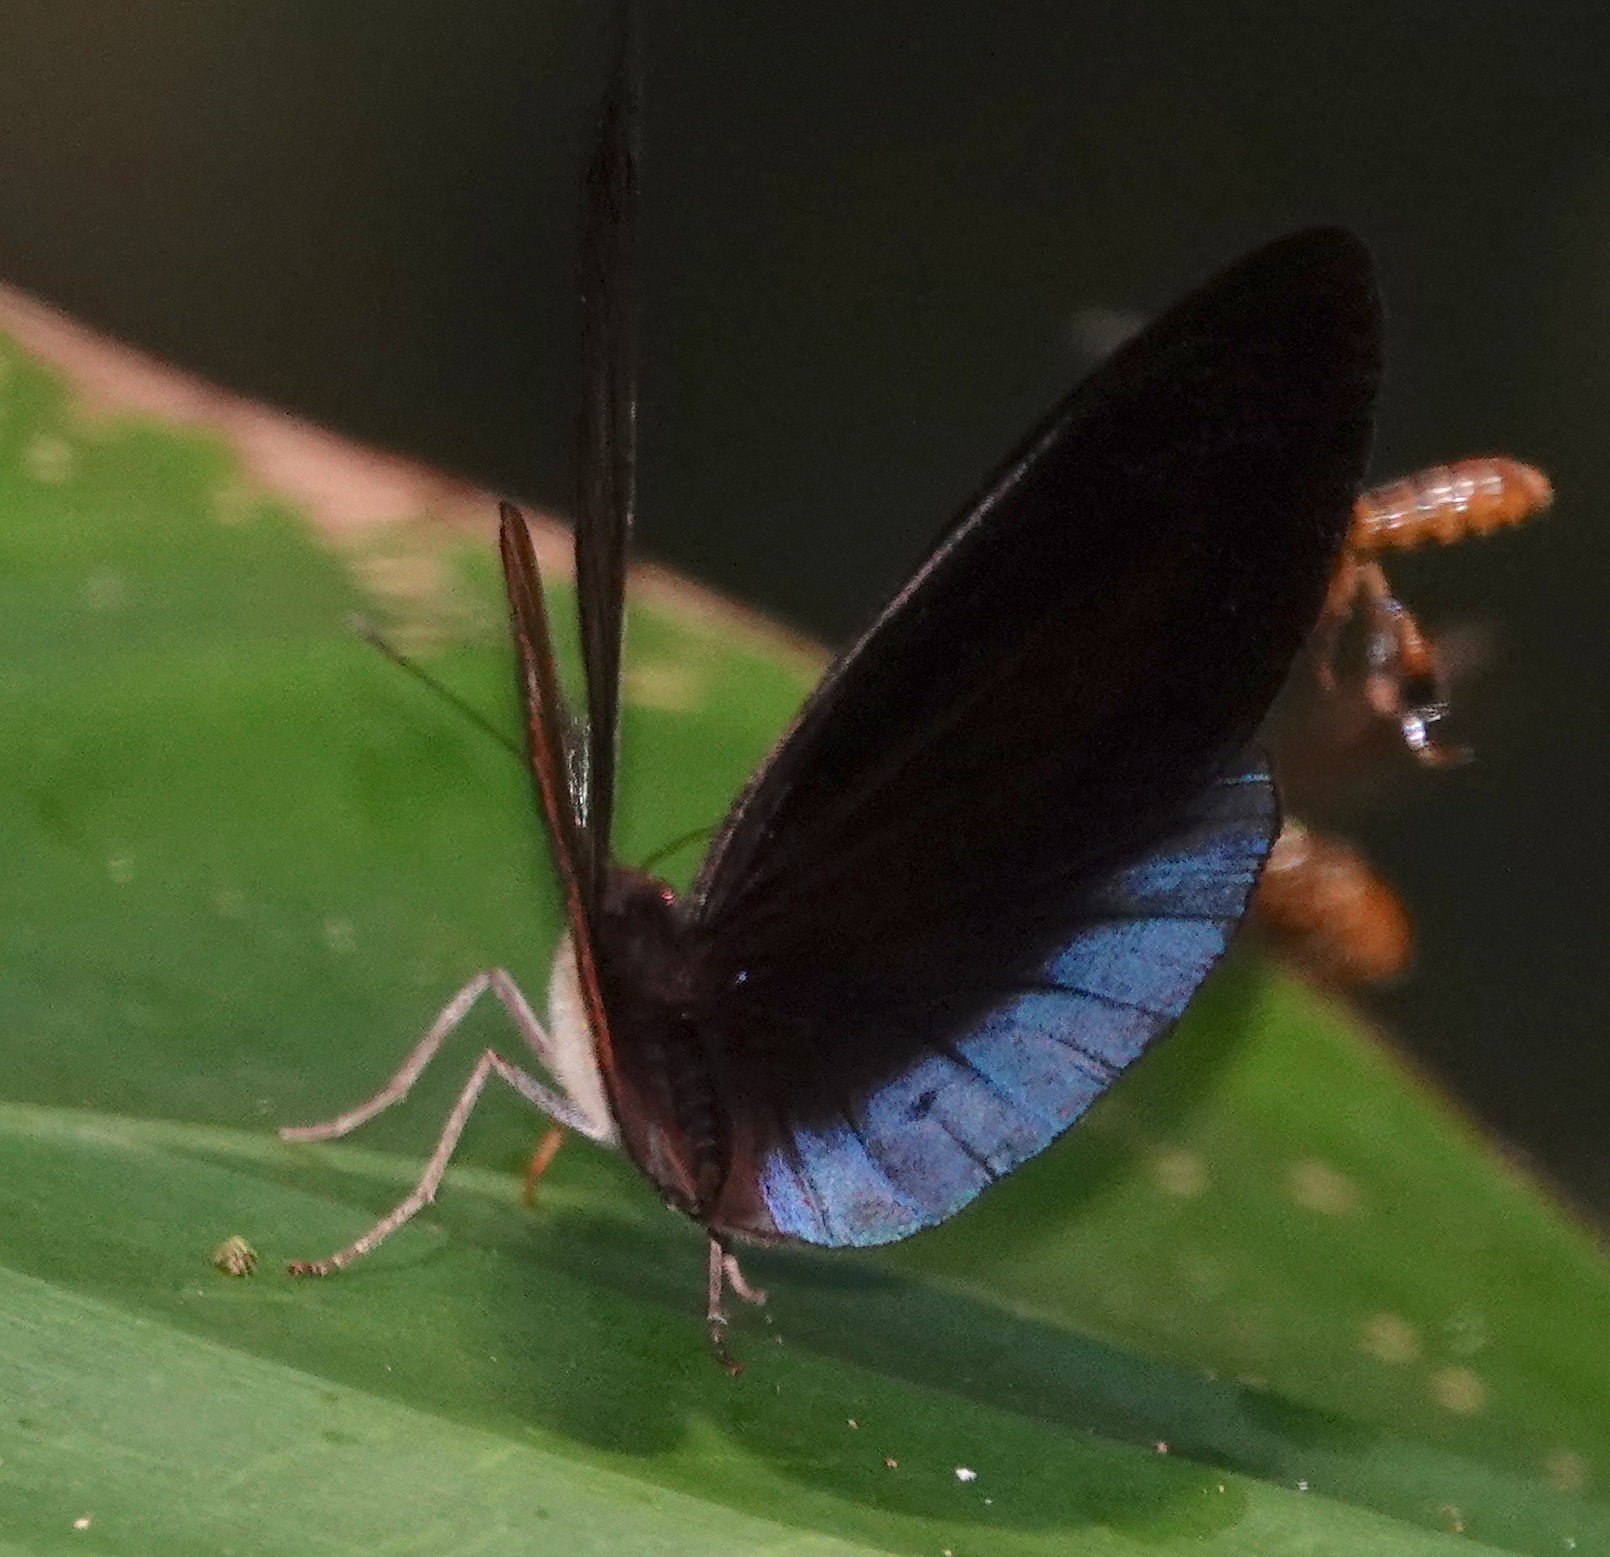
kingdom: Animalia
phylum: Arthropoda
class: Insecta
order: Lepidoptera
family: Nymphalidae
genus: Eunica
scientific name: Eunica chlororhoa
